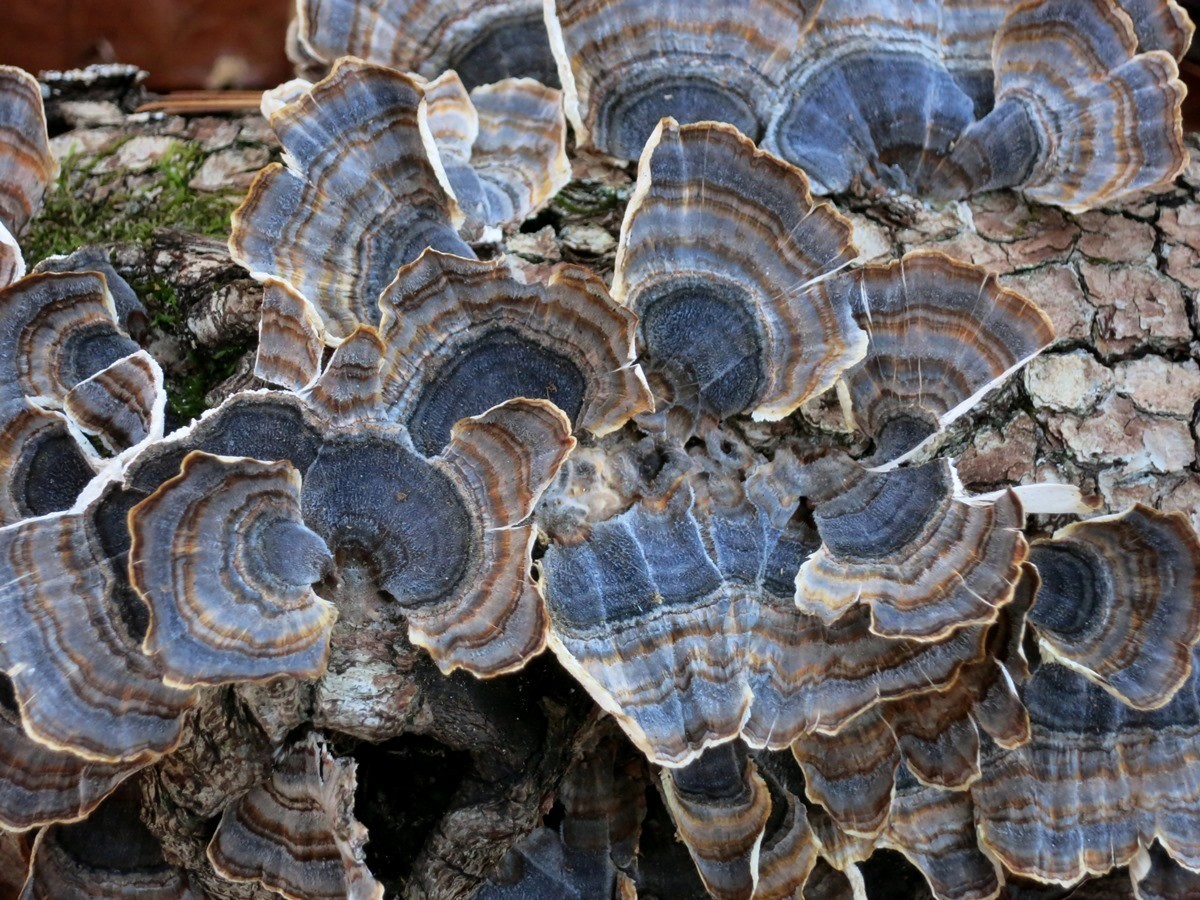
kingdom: Fungi
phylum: Basidiomycota
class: Agaricomycetes
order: Polyporales
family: Polyporaceae
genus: Trametes
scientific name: Trametes versicolor
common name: Turkeytail
